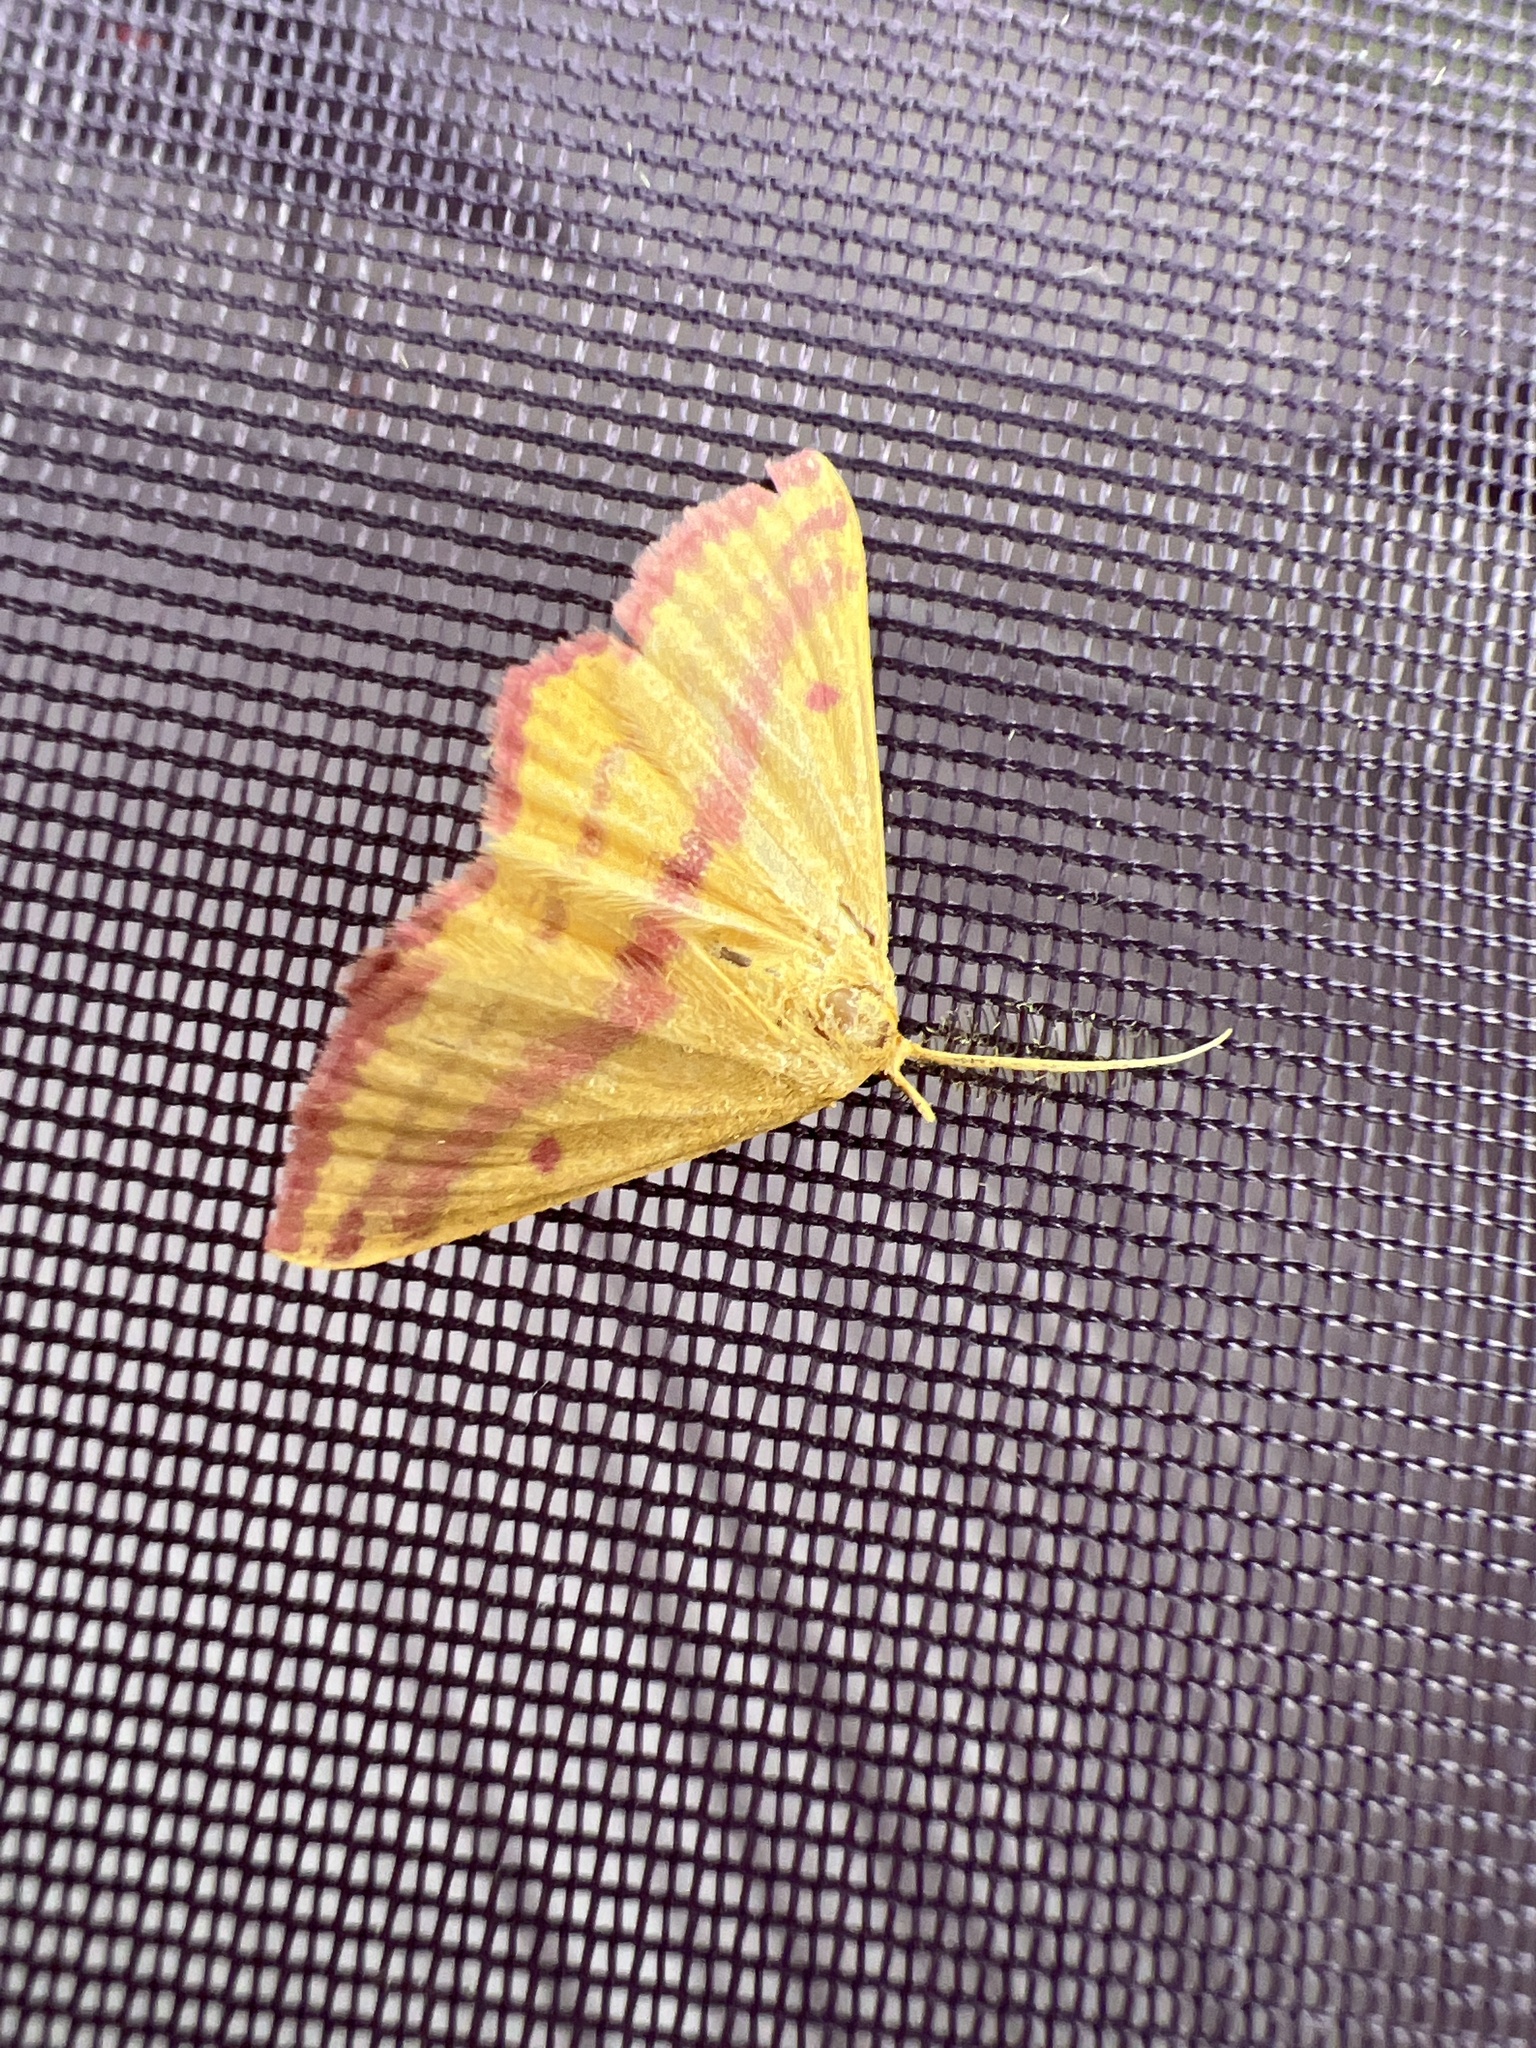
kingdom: Animalia
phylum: Arthropoda
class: Insecta
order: Lepidoptera
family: Geometridae
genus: Haematopis
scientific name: Haematopis grataria
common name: Chickweed geometer
